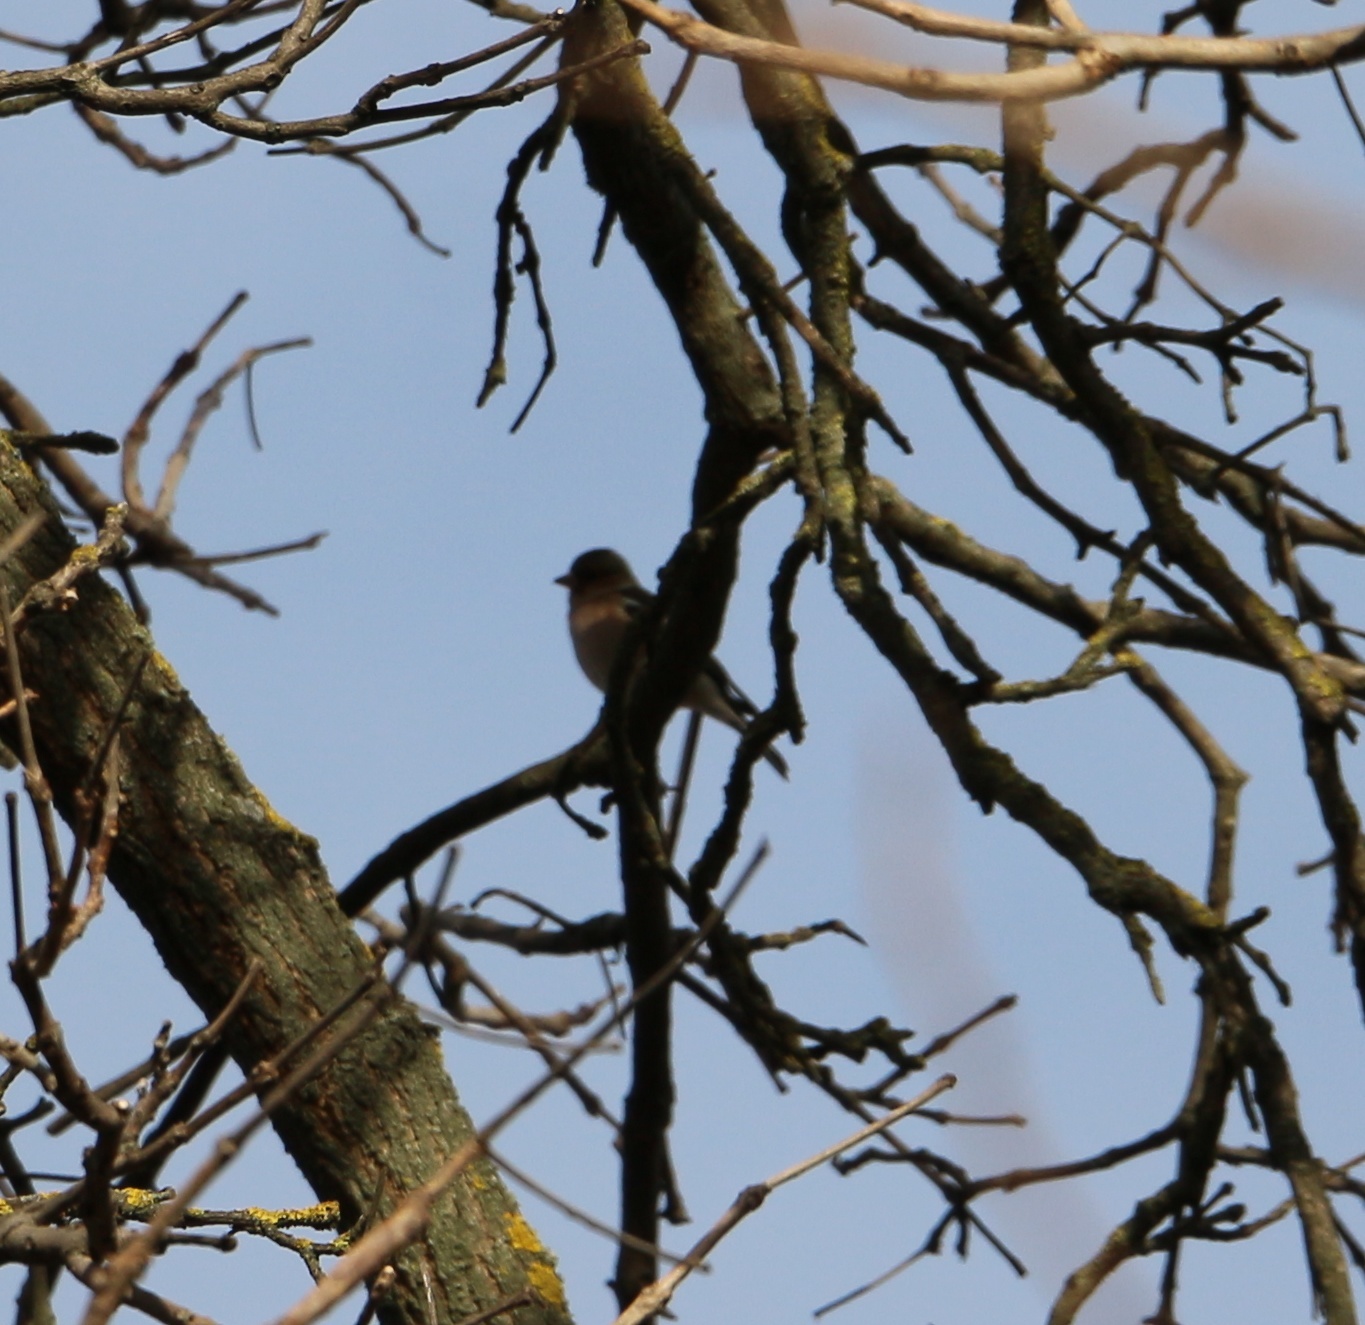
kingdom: Animalia
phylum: Chordata
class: Aves
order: Passeriformes
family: Fringillidae
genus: Fringilla
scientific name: Fringilla coelebs
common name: Common chaffinch
